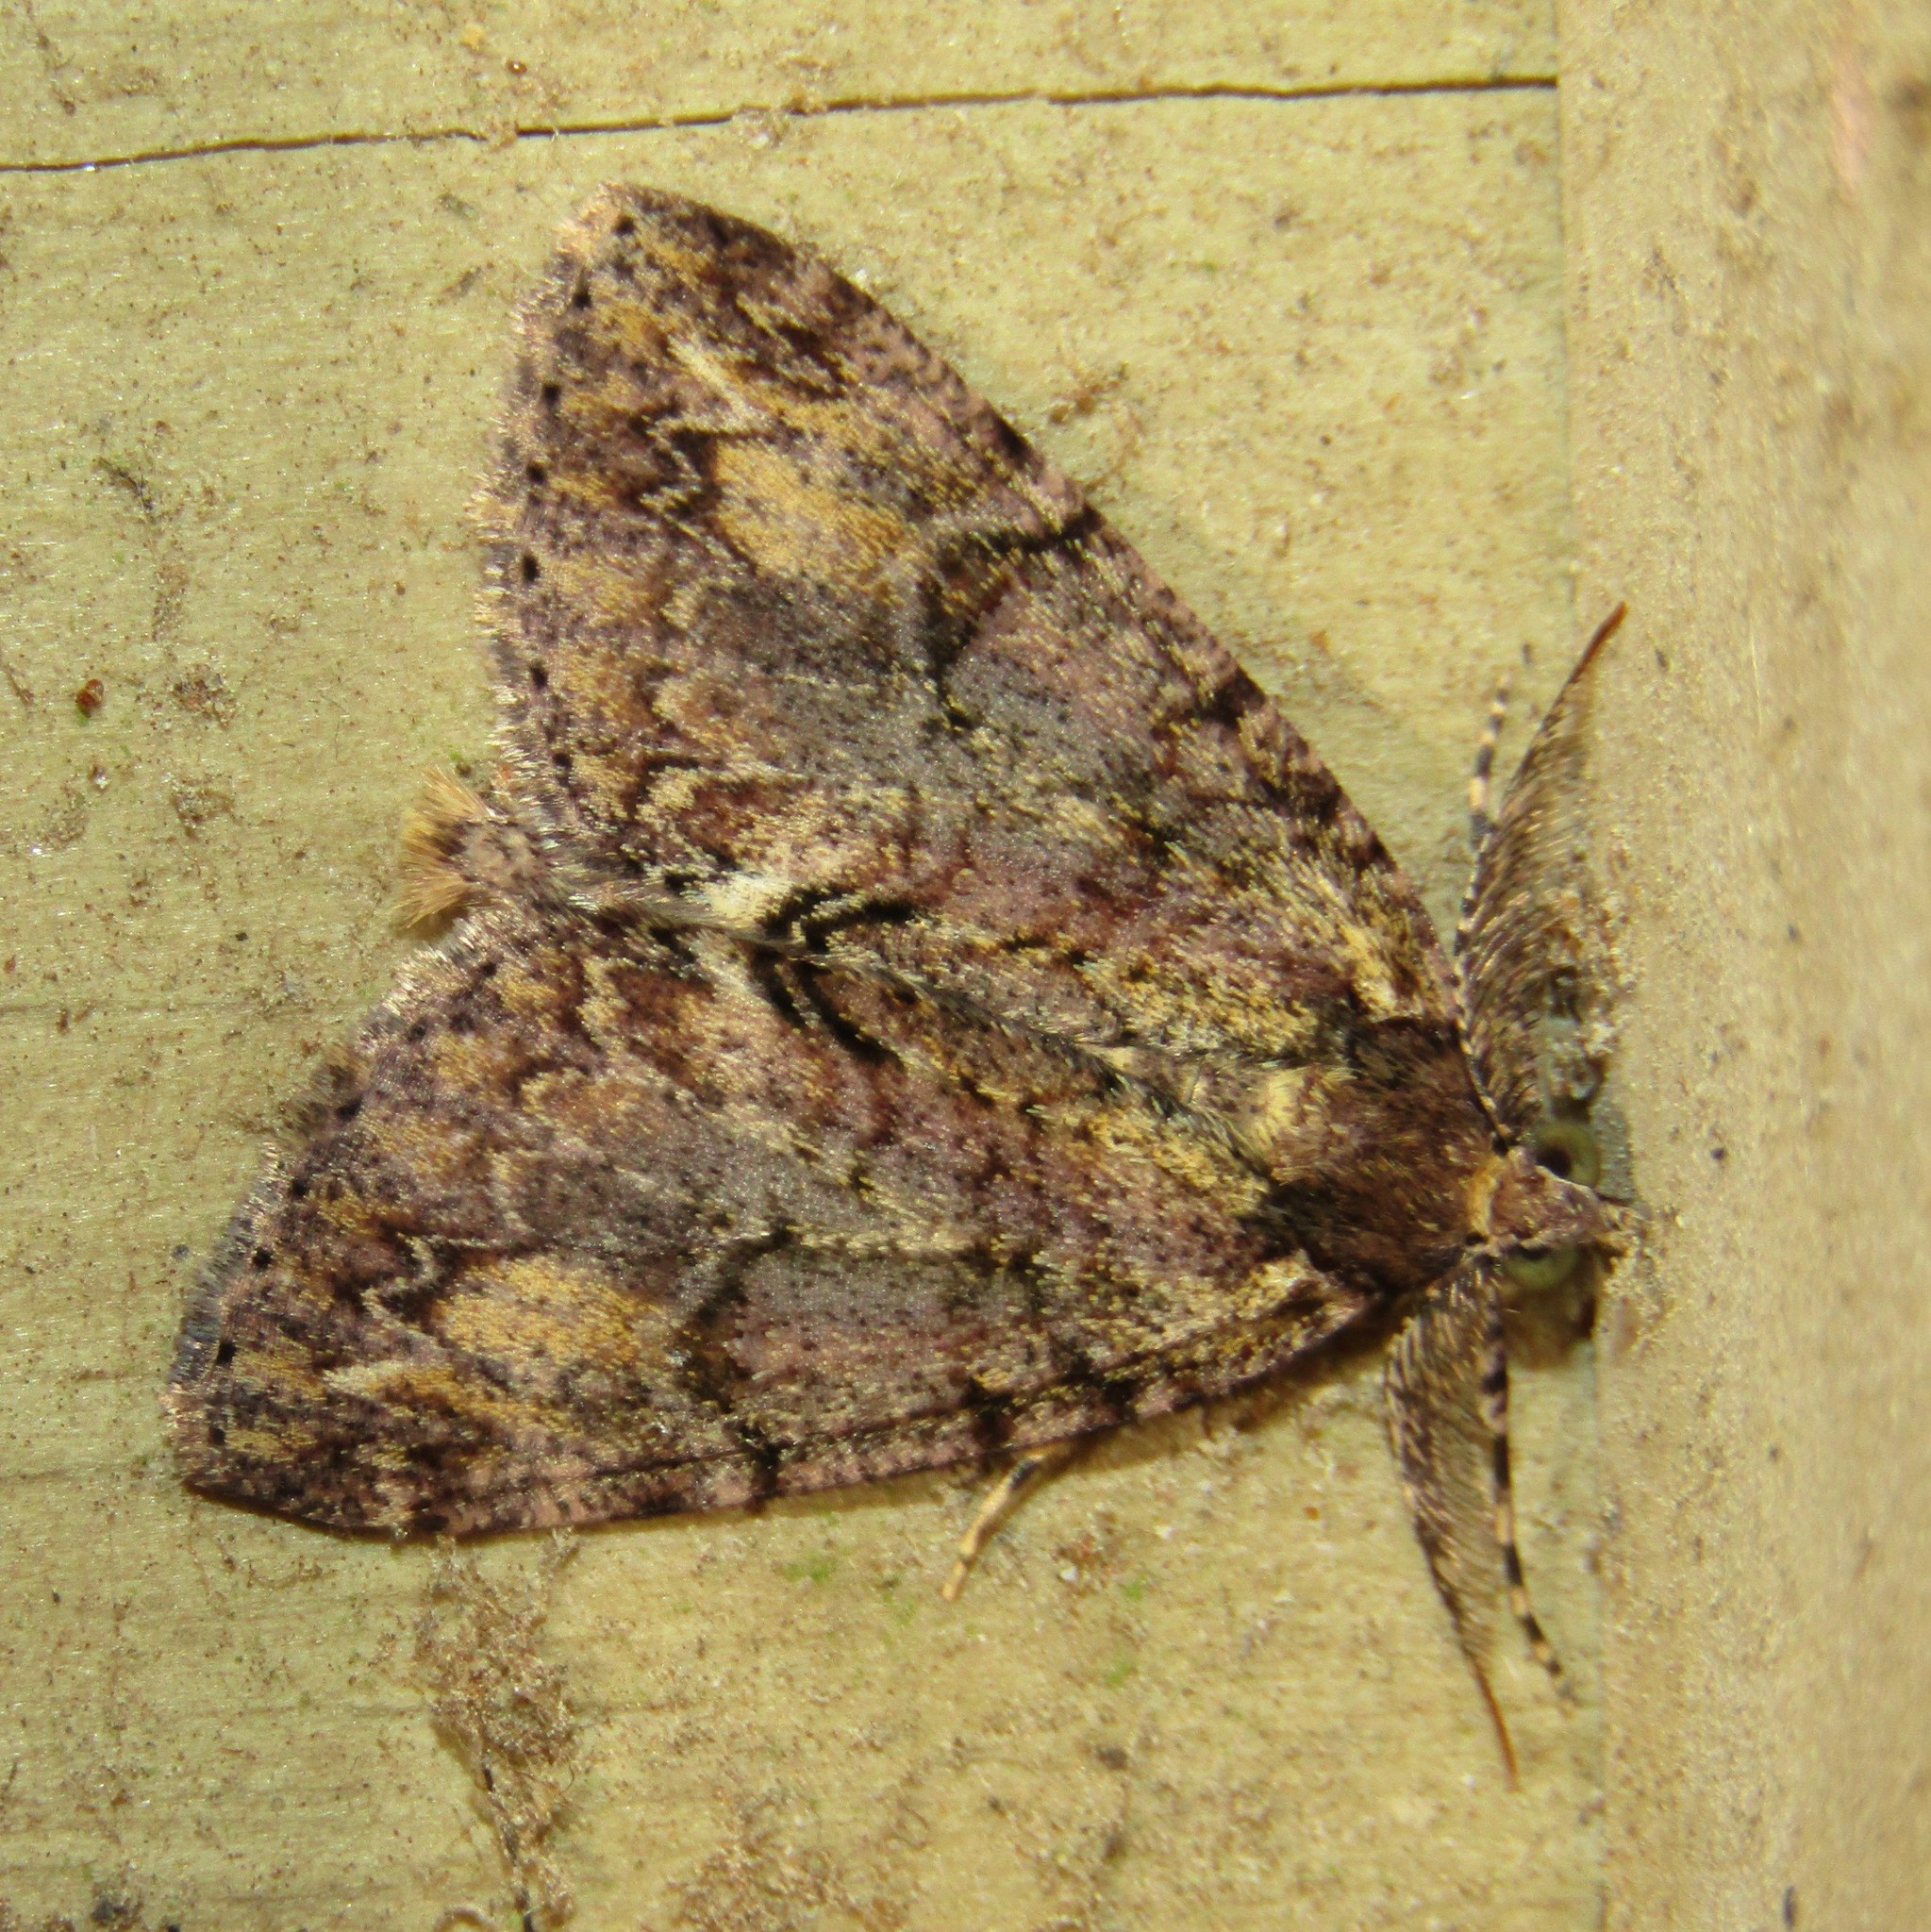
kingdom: Animalia
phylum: Arthropoda
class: Insecta
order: Lepidoptera
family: Geometridae
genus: Pseudocoremia
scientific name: Pseudocoremia suavis
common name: Common forest looper
